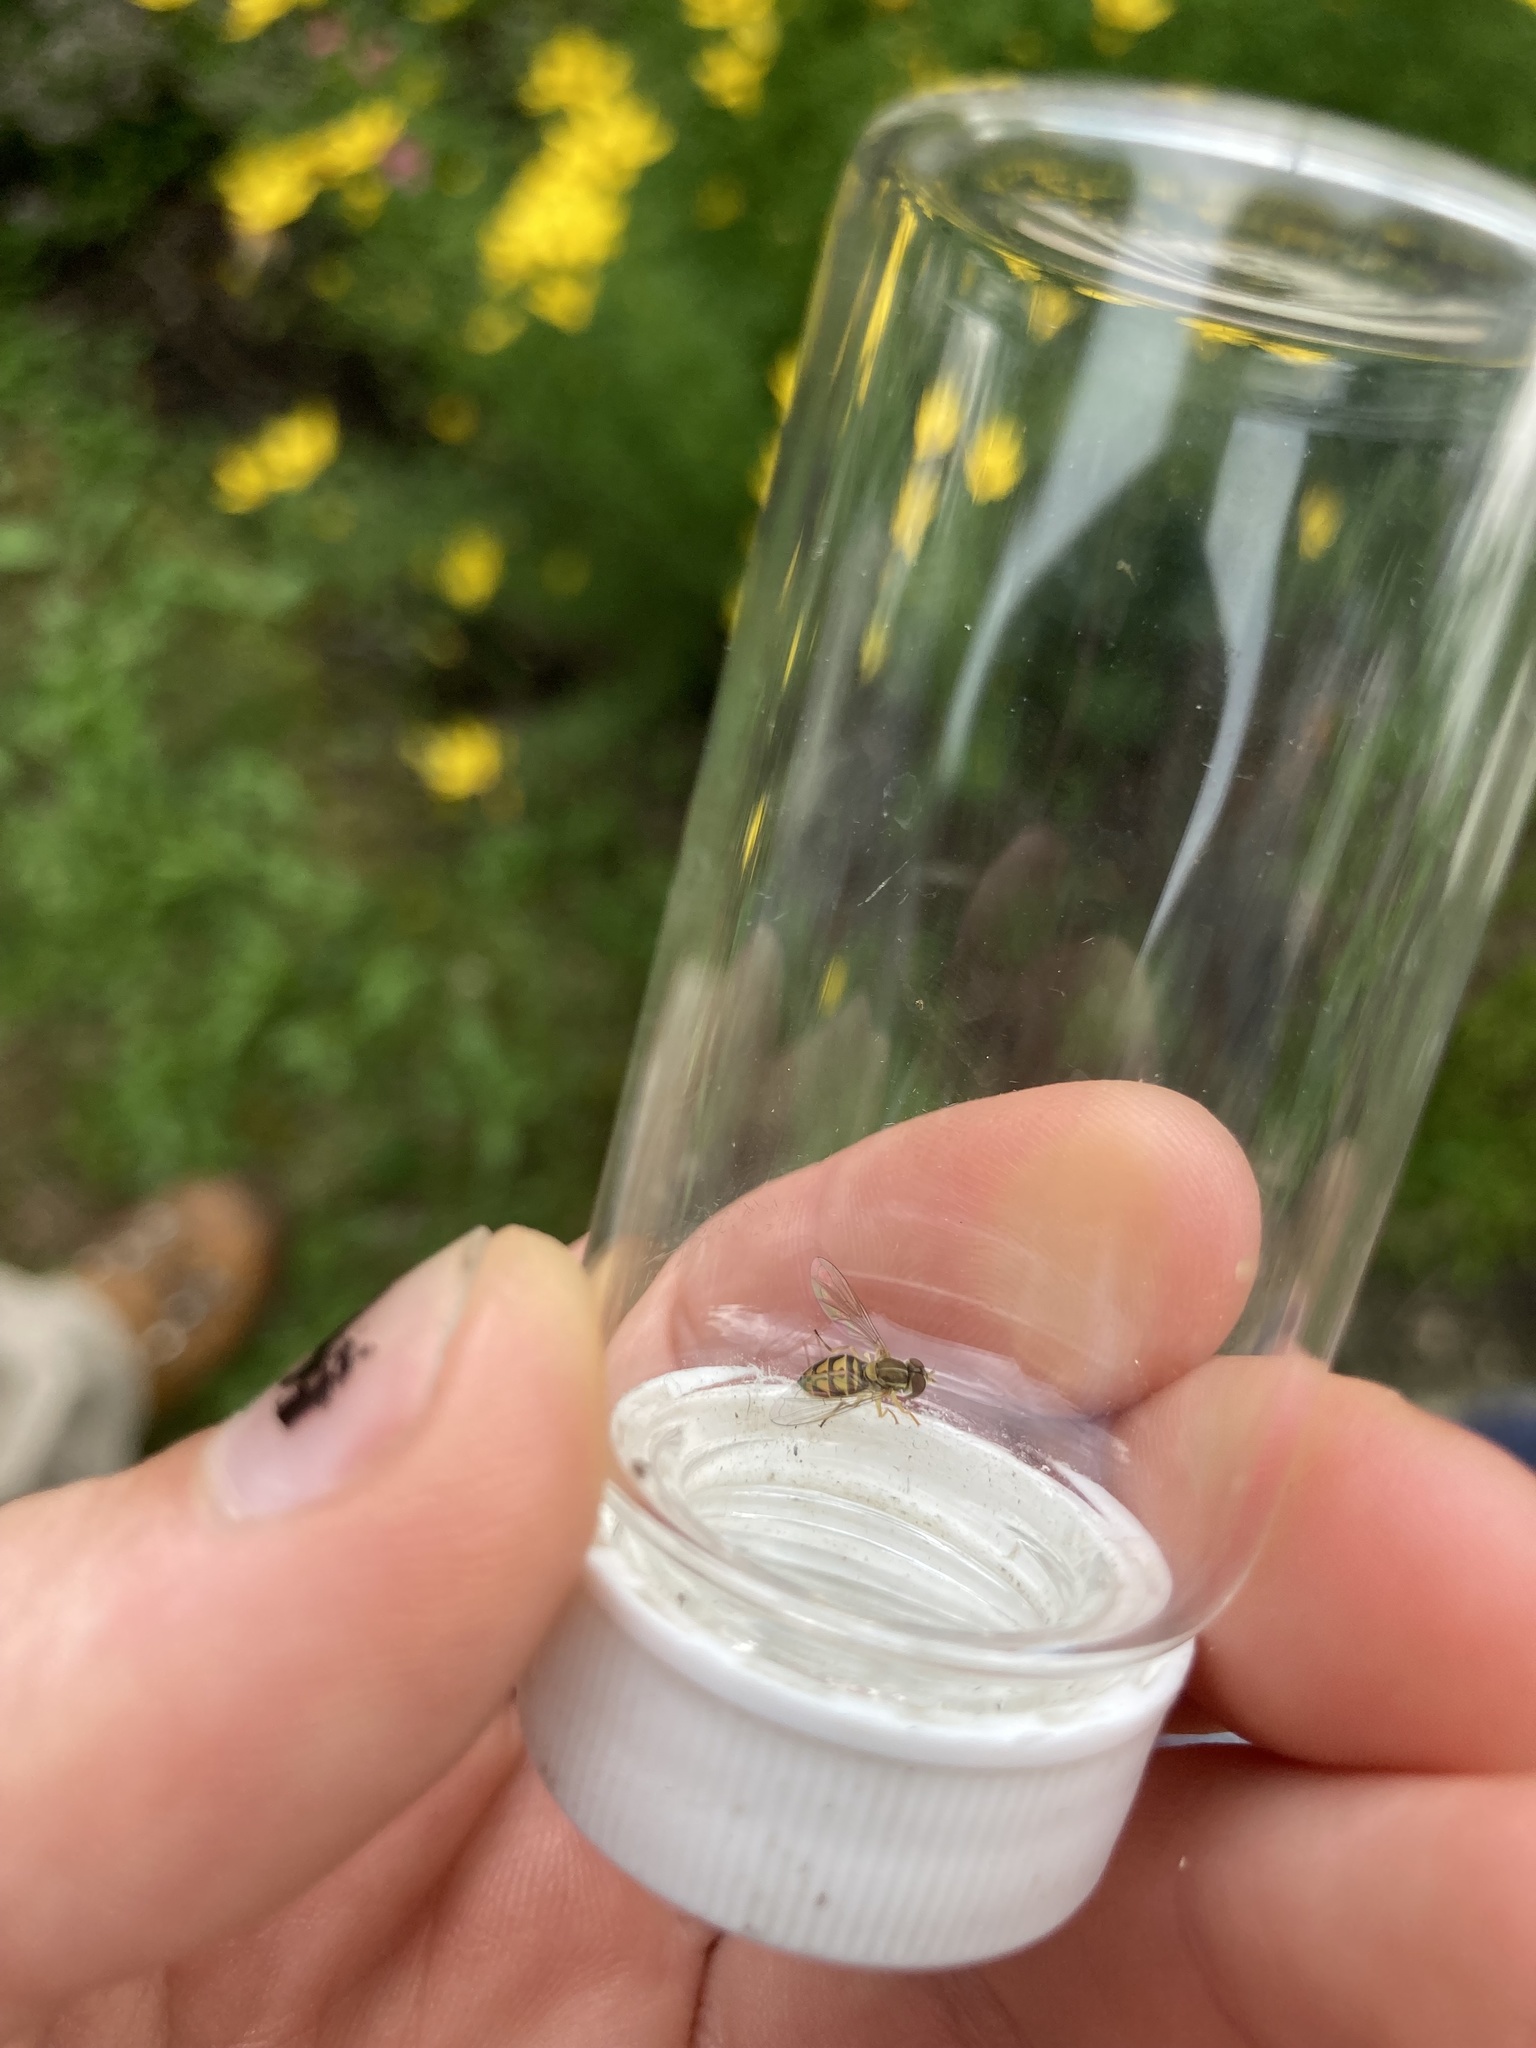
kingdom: Animalia
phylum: Arthropoda
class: Insecta
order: Diptera
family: Syrphidae
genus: Toxomerus
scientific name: Toxomerus marginatus
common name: Syrphid fly
